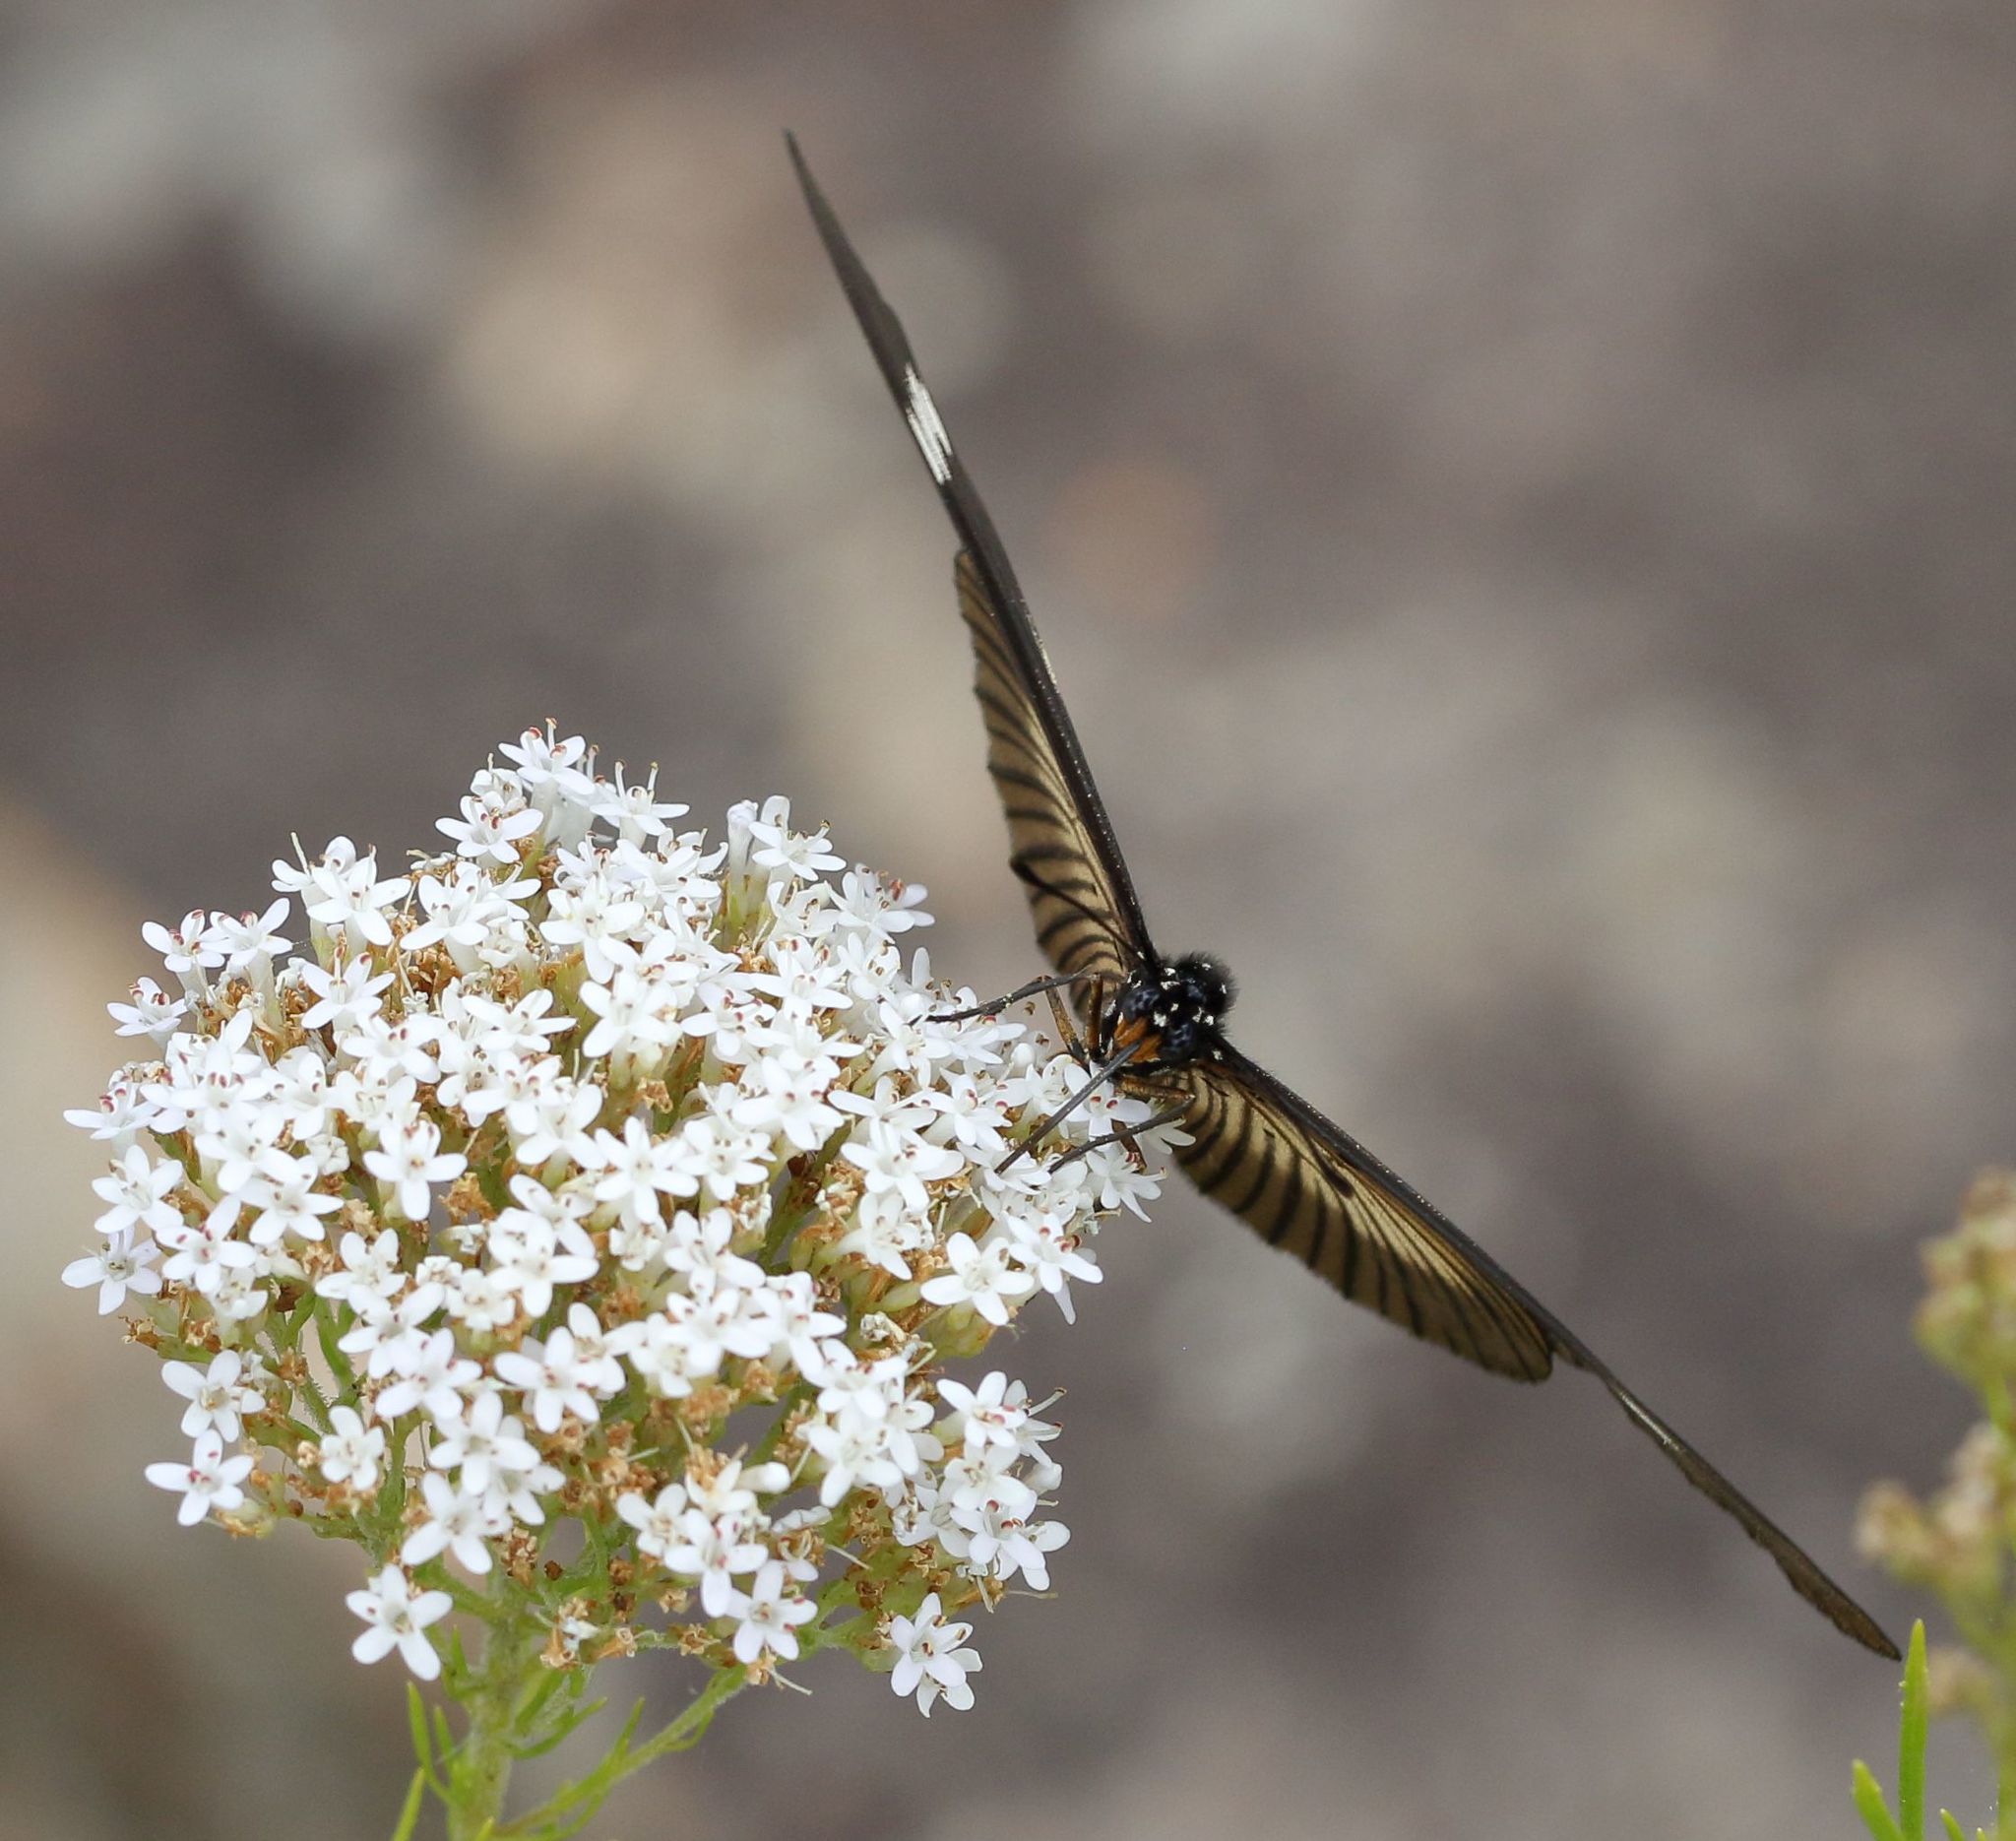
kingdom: Animalia
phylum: Arthropoda
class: Insecta
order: Lepidoptera
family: Nymphalidae
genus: Acraea
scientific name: Acraea esebria
